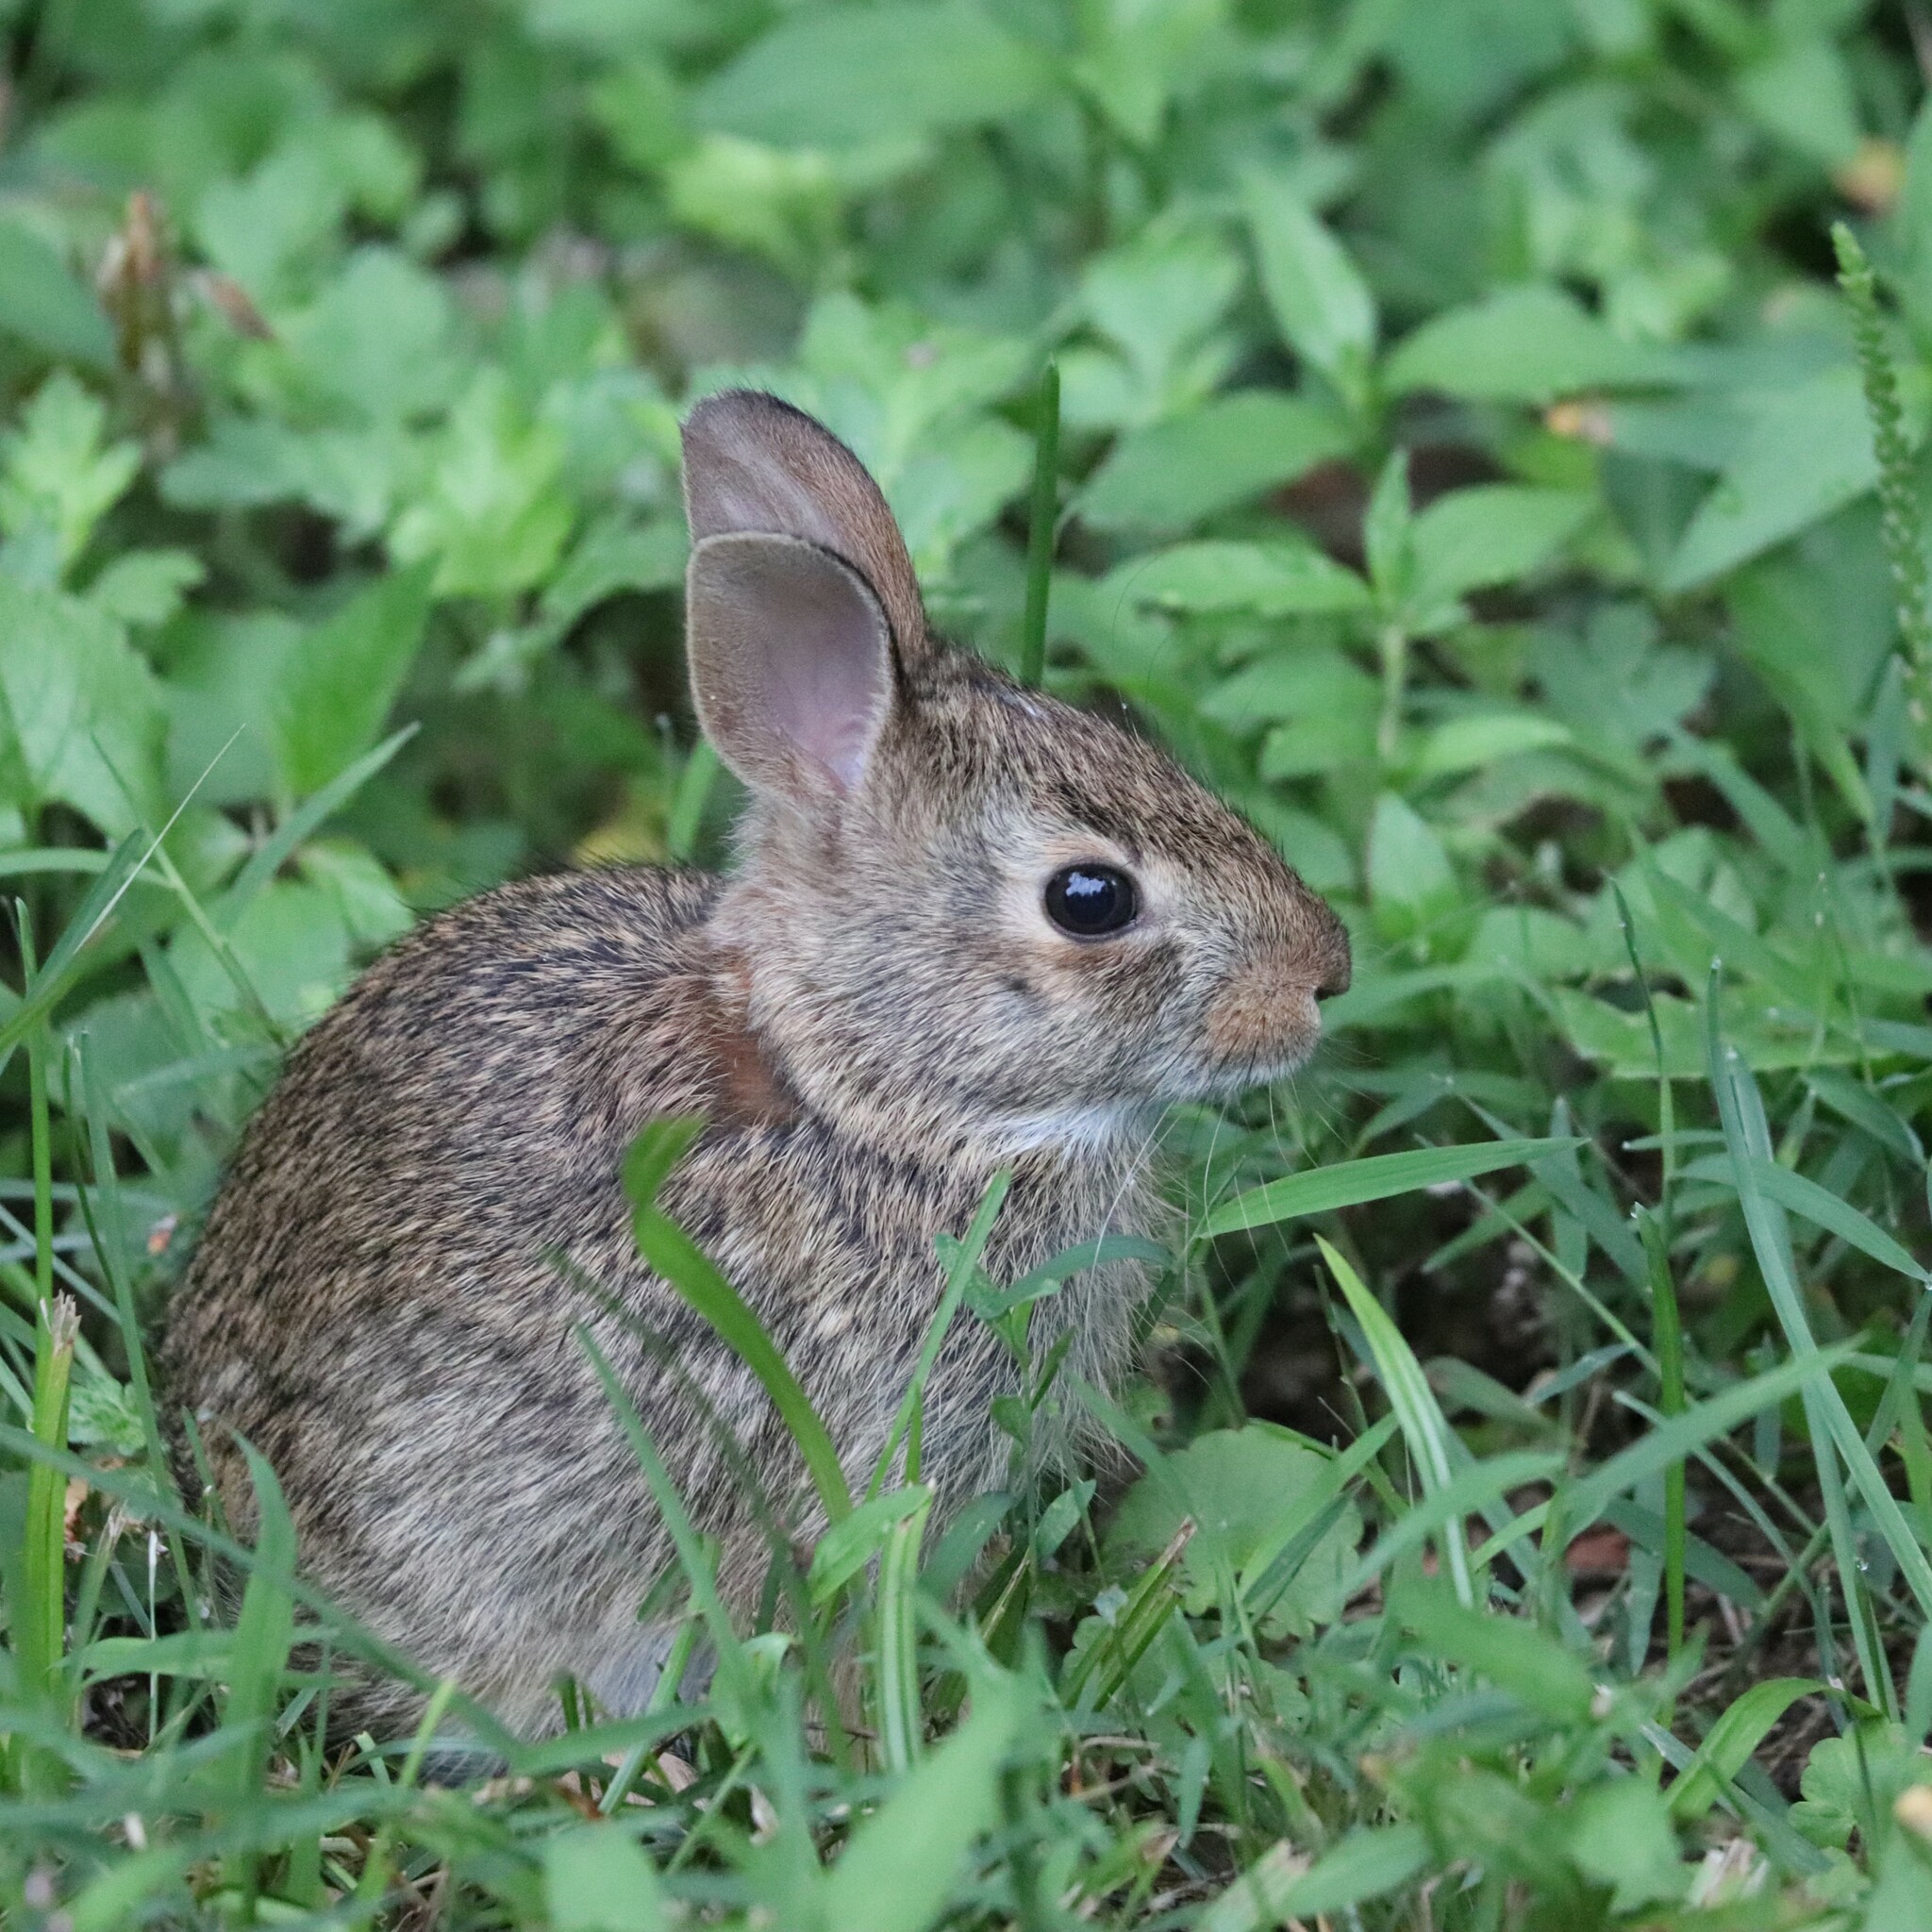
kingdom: Animalia
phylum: Chordata
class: Mammalia
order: Lagomorpha
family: Leporidae
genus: Sylvilagus
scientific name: Sylvilagus floridanus
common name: Eastern cottontail
